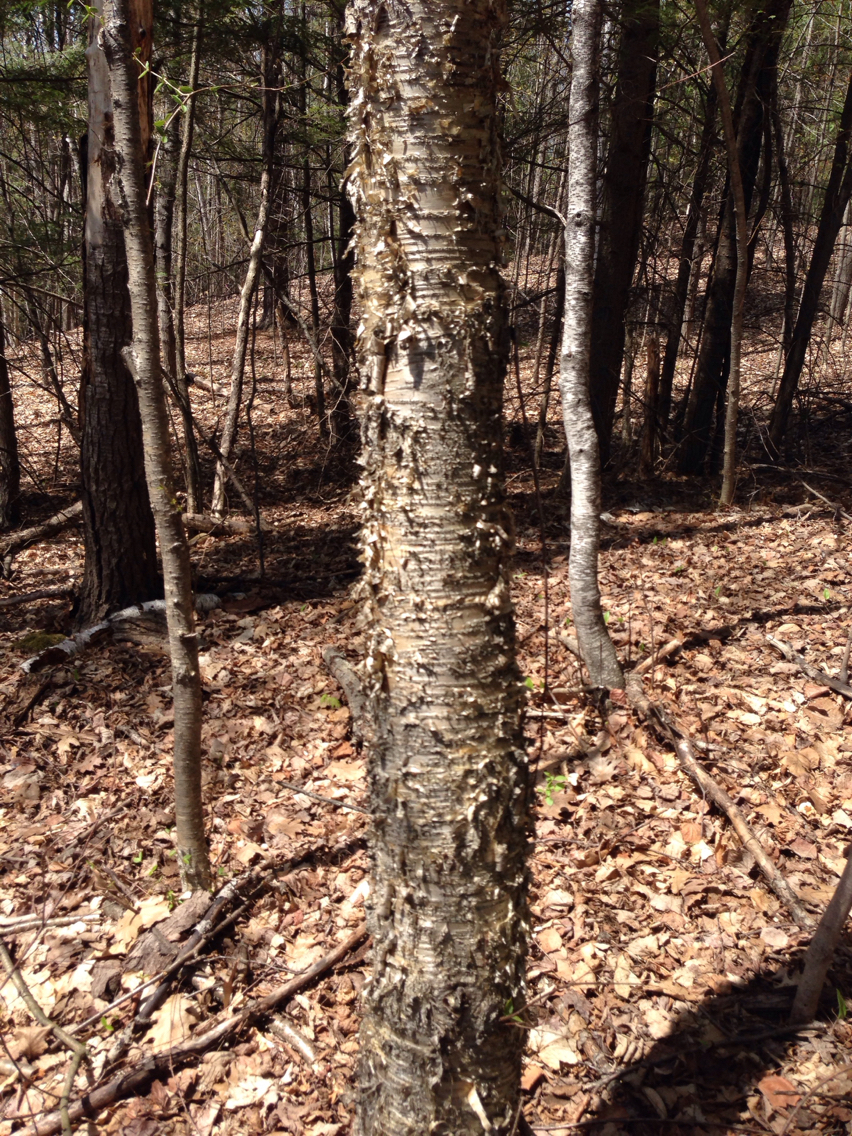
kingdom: Plantae
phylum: Tracheophyta
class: Magnoliopsida
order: Fagales
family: Betulaceae
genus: Betula
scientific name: Betula alleghaniensis
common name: Yellow birch
